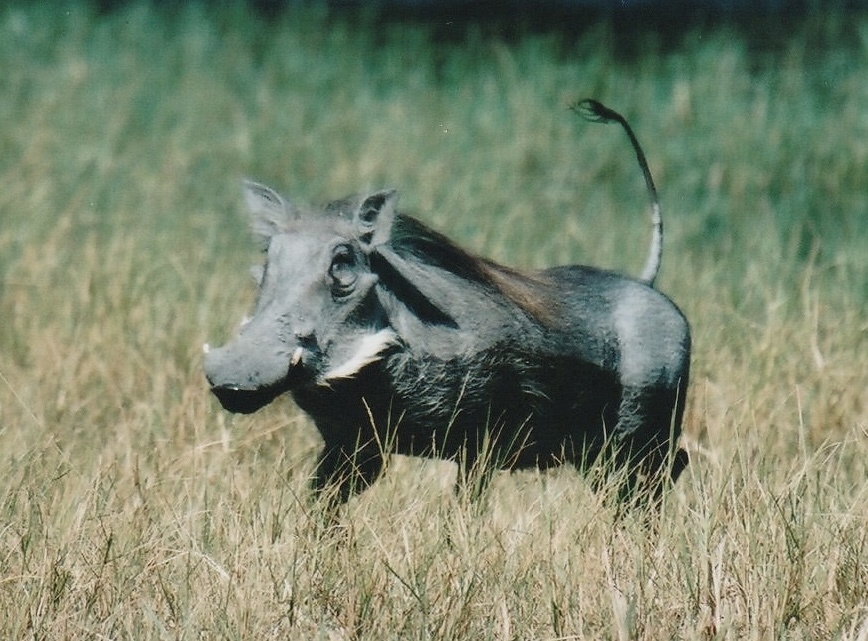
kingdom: Animalia
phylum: Chordata
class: Mammalia
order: Artiodactyla
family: Suidae
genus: Phacochoerus
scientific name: Phacochoerus africanus
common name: Common warthog
